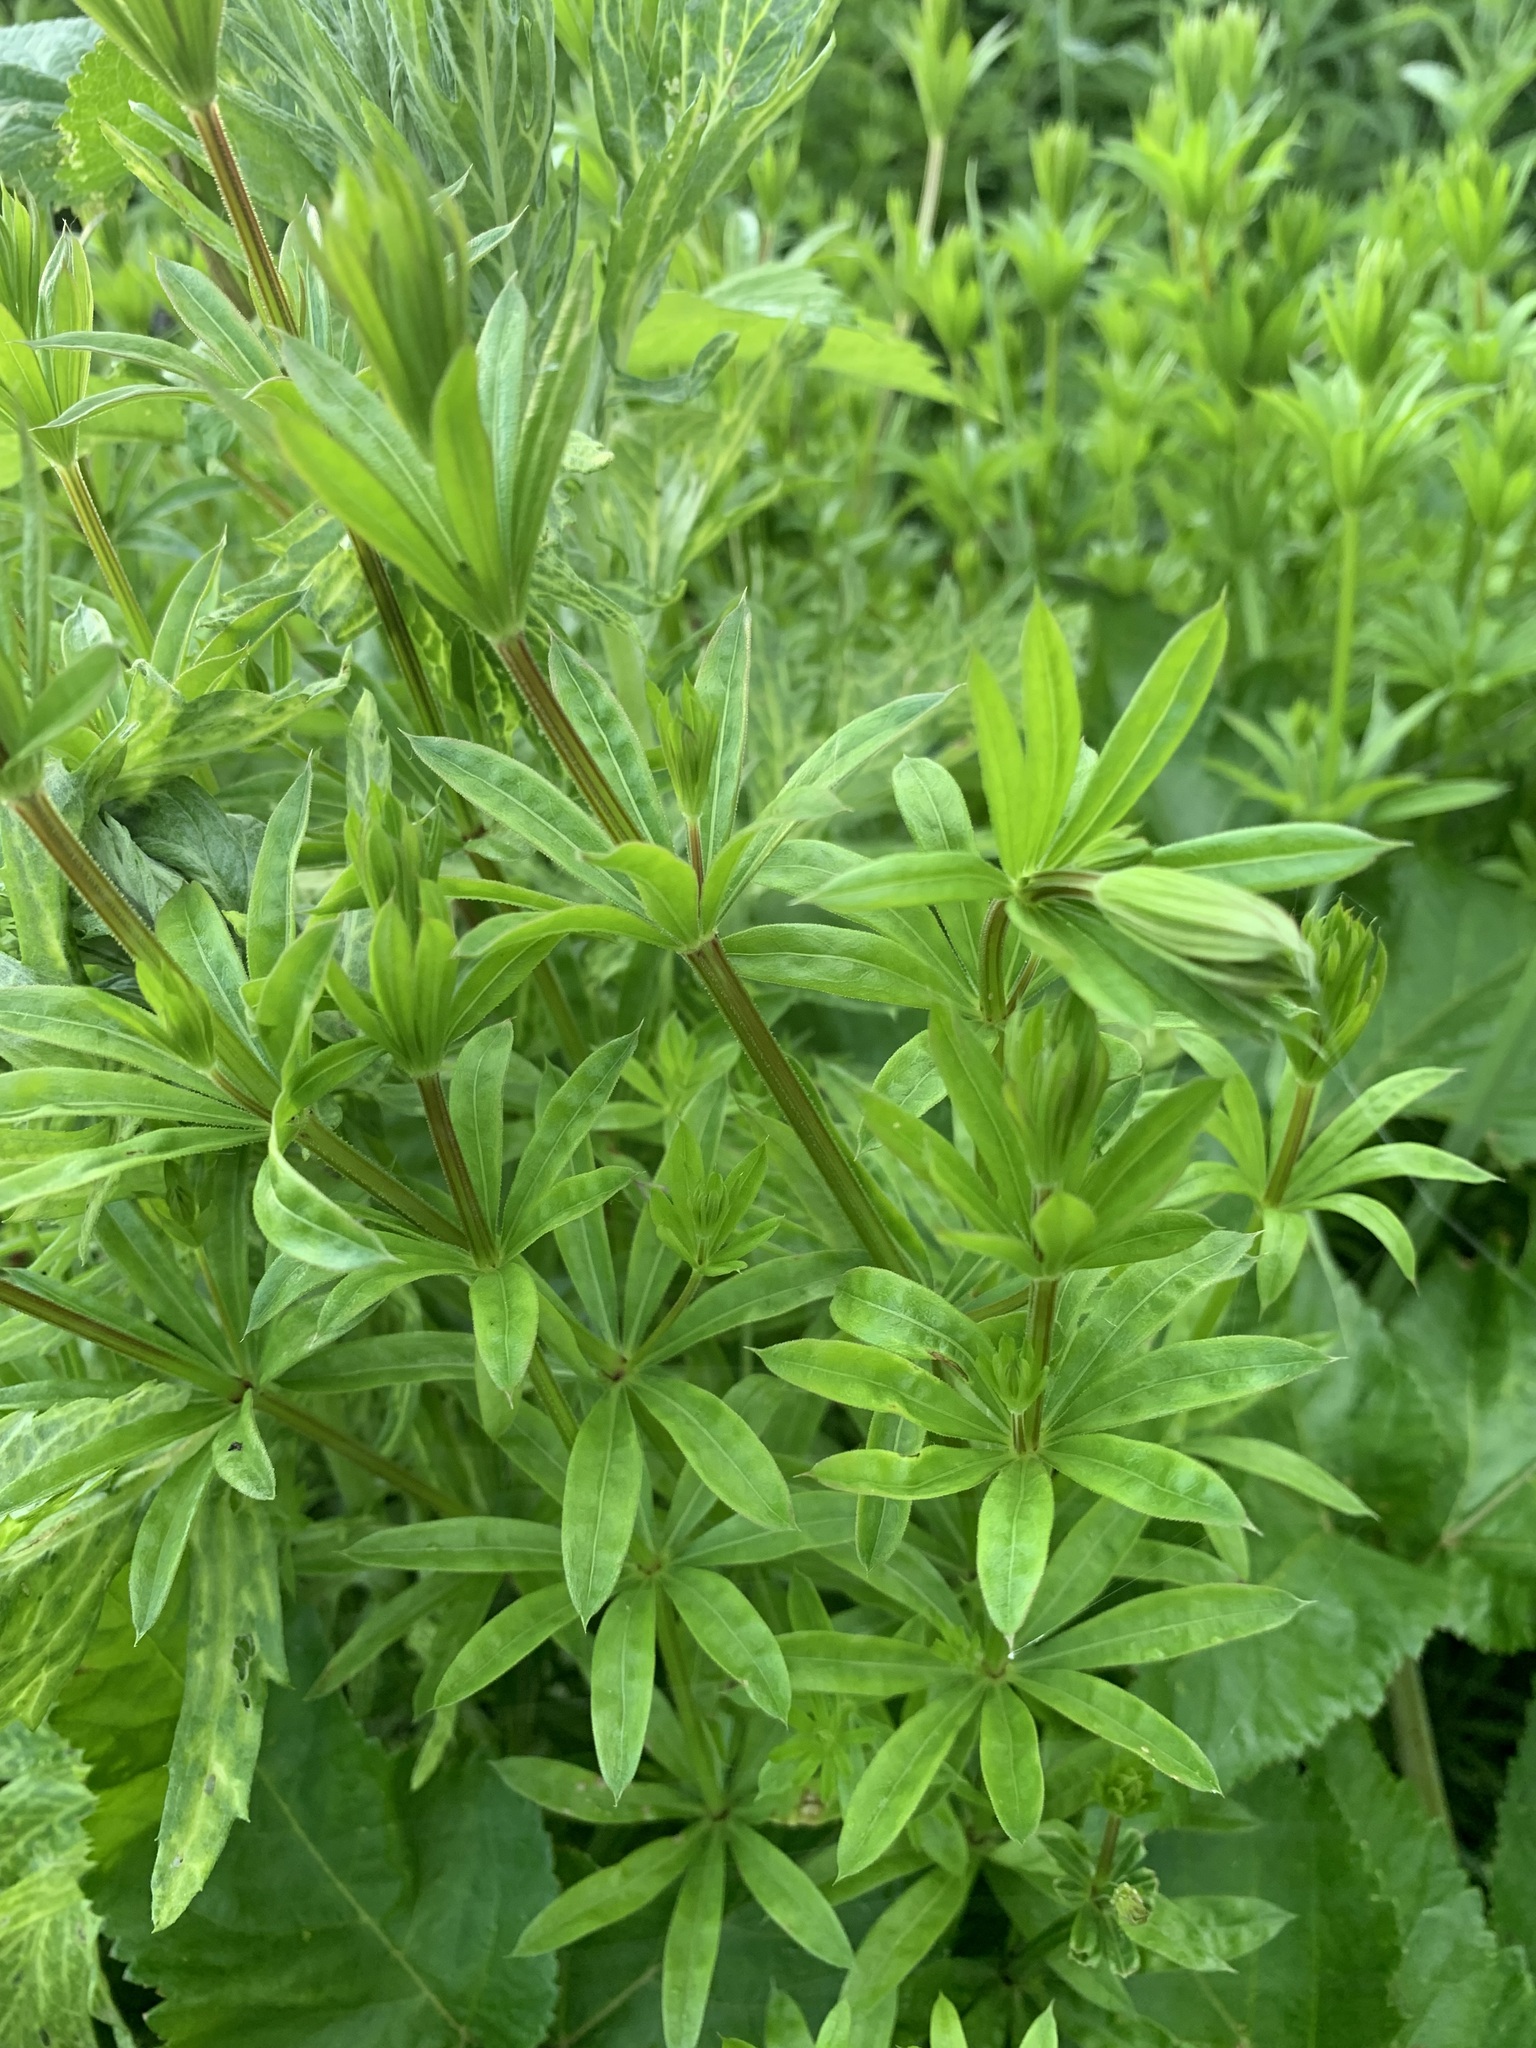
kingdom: Plantae
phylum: Tracheophyta
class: Magnoliopsida
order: Gentianales
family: Rubiaceae
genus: Galium
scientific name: Galium rivale
